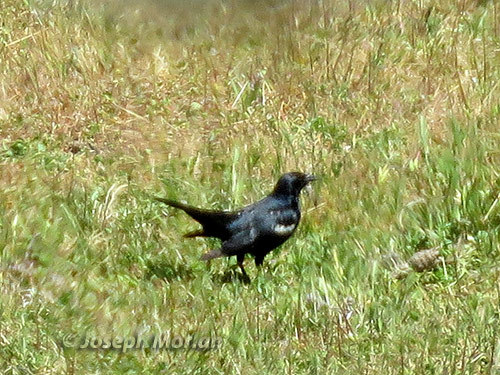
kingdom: Animalia
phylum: Chordata
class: Aves
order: Passeriformes
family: Icteridae
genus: Agelaius
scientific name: Agelaius tricolor
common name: Tricolored blackbird
